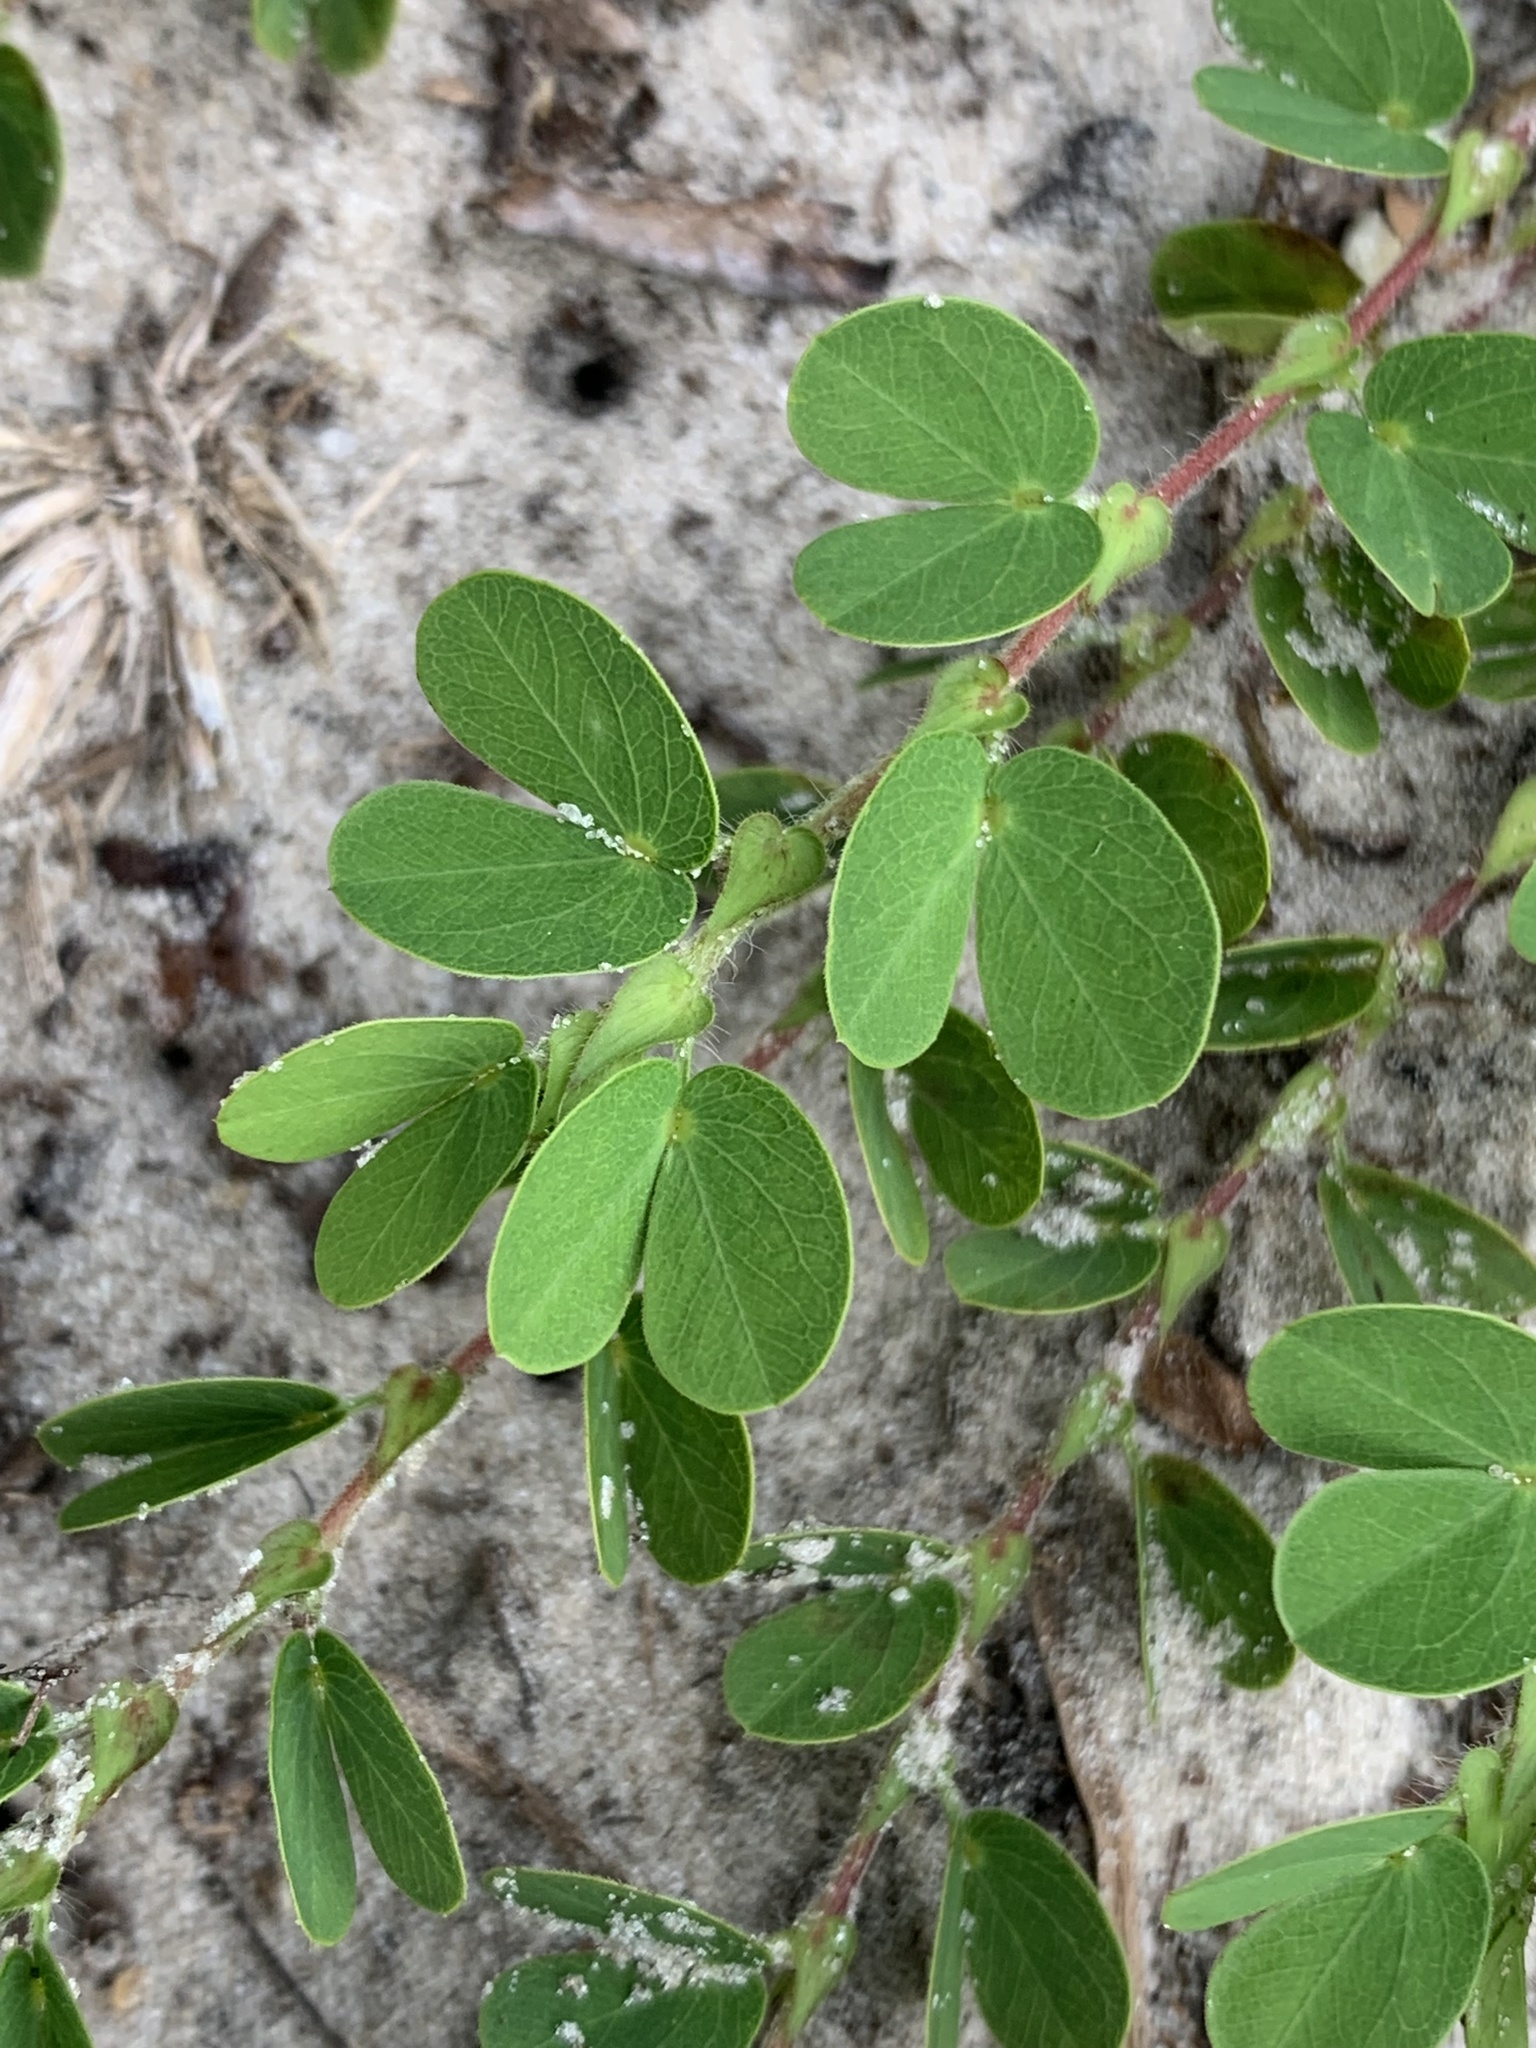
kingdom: Plantae
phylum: Tracheophyta
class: Magnoliopsida
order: Fabales
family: Fabaceae
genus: Chamaecrista
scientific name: Chamaecrista rotundifolia
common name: Round-leaf cassia
